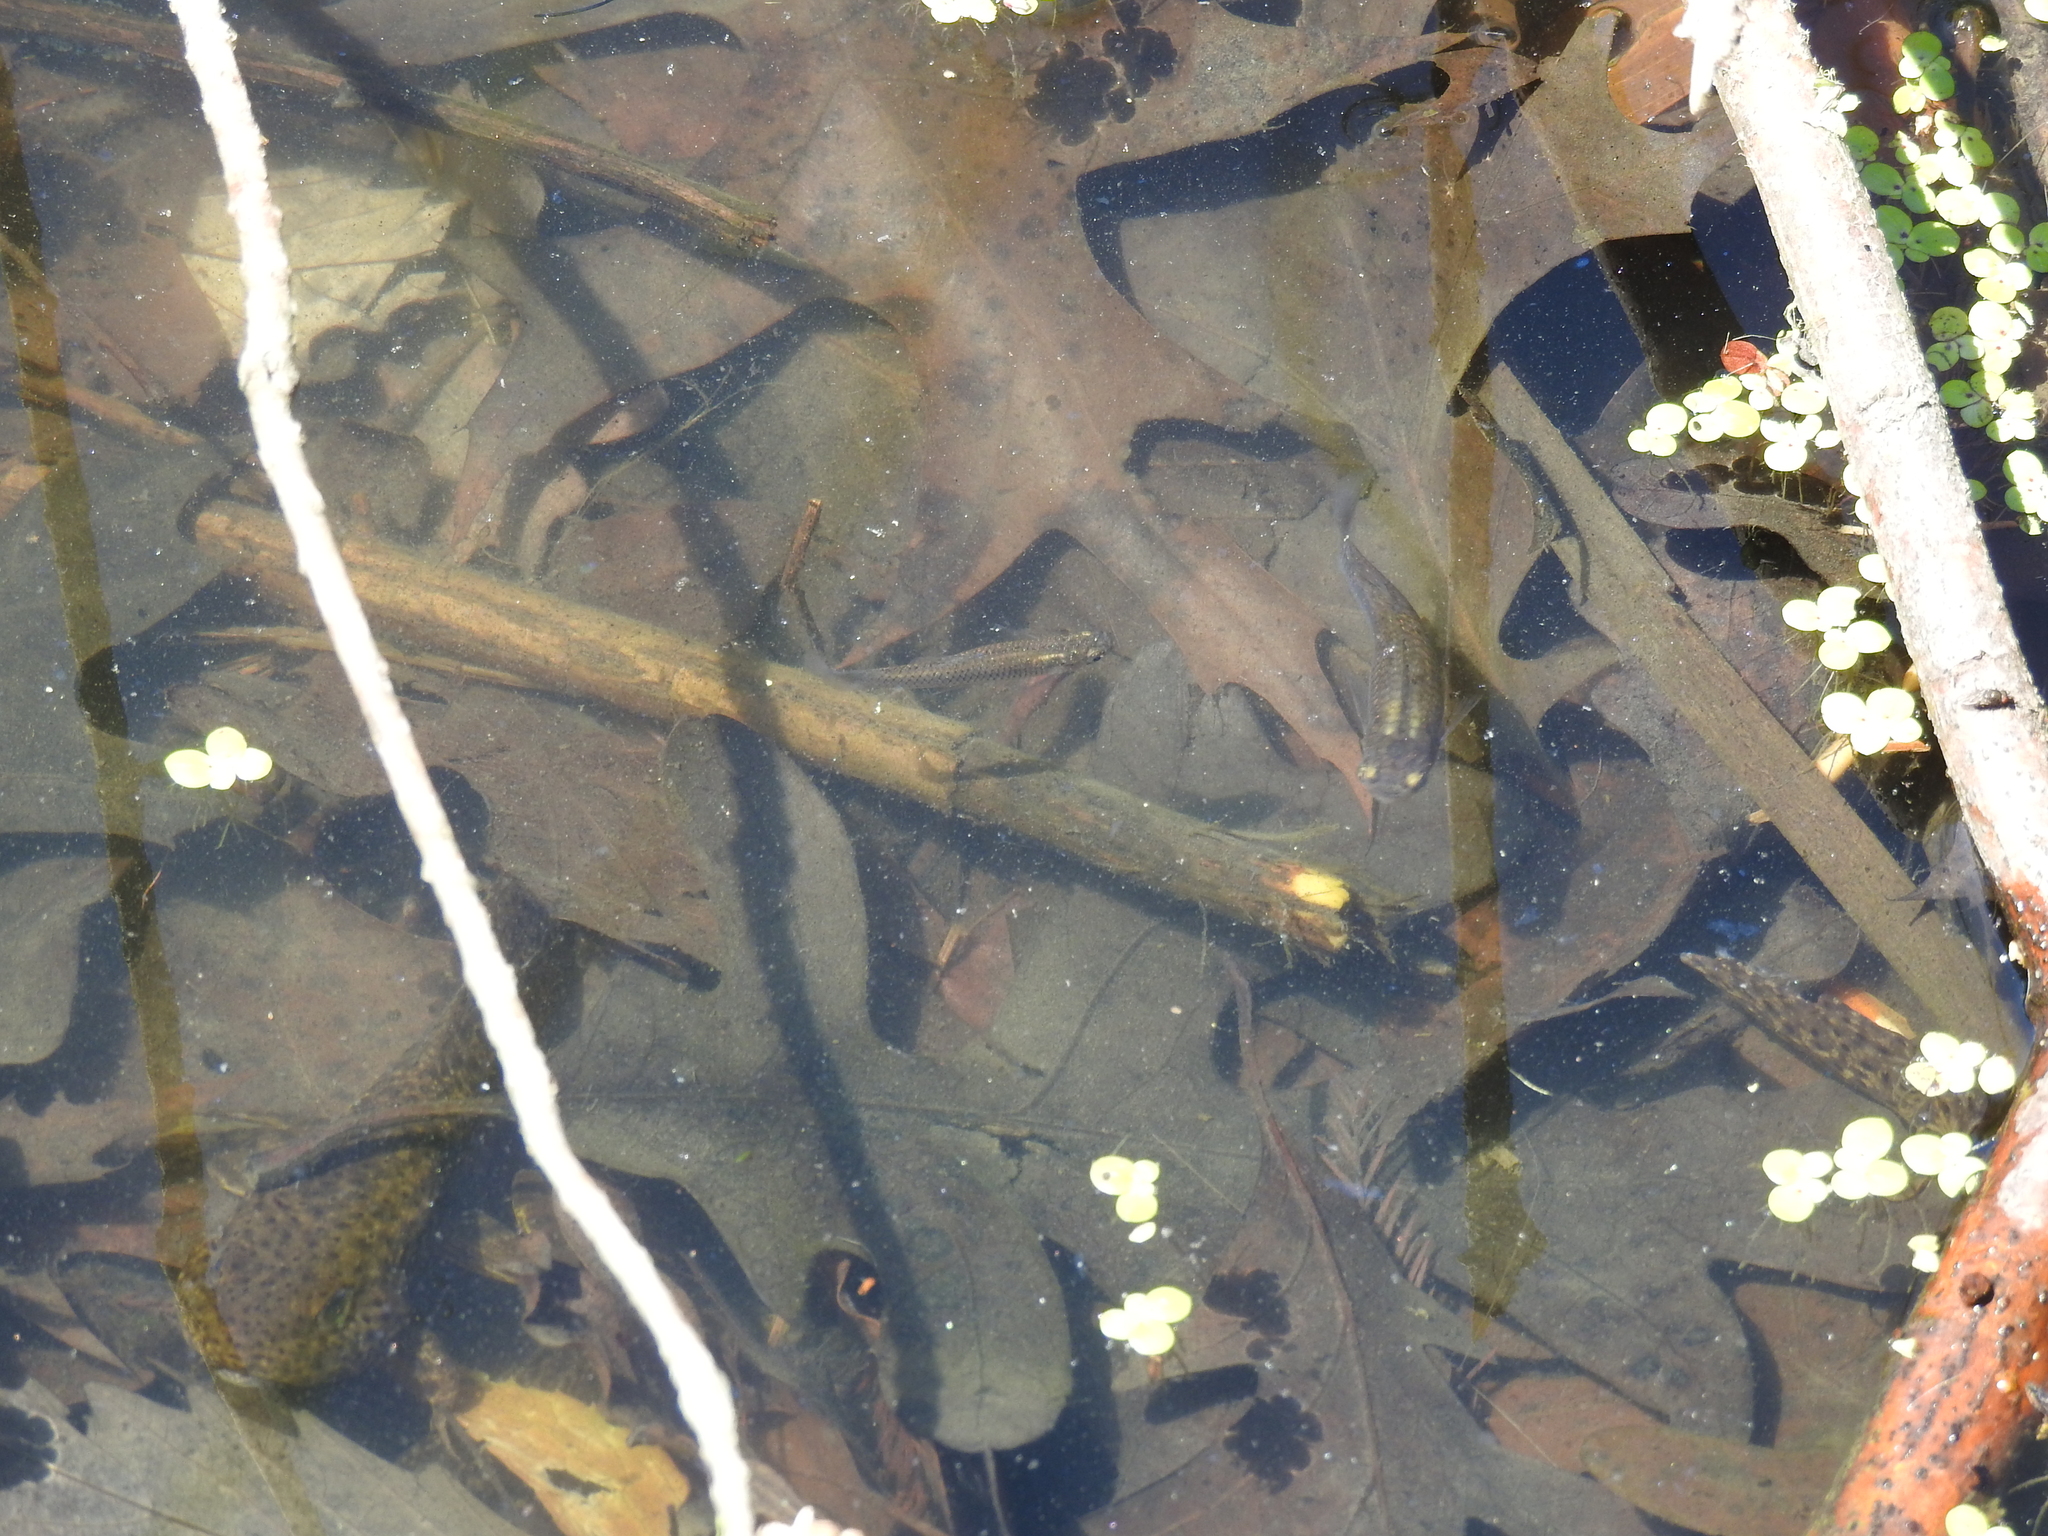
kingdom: Animalia
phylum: Chordata
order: Cyprinodontiformes
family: Poeciliidae
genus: Gambusia
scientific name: Gambusia affinis
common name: Mosquitofish
